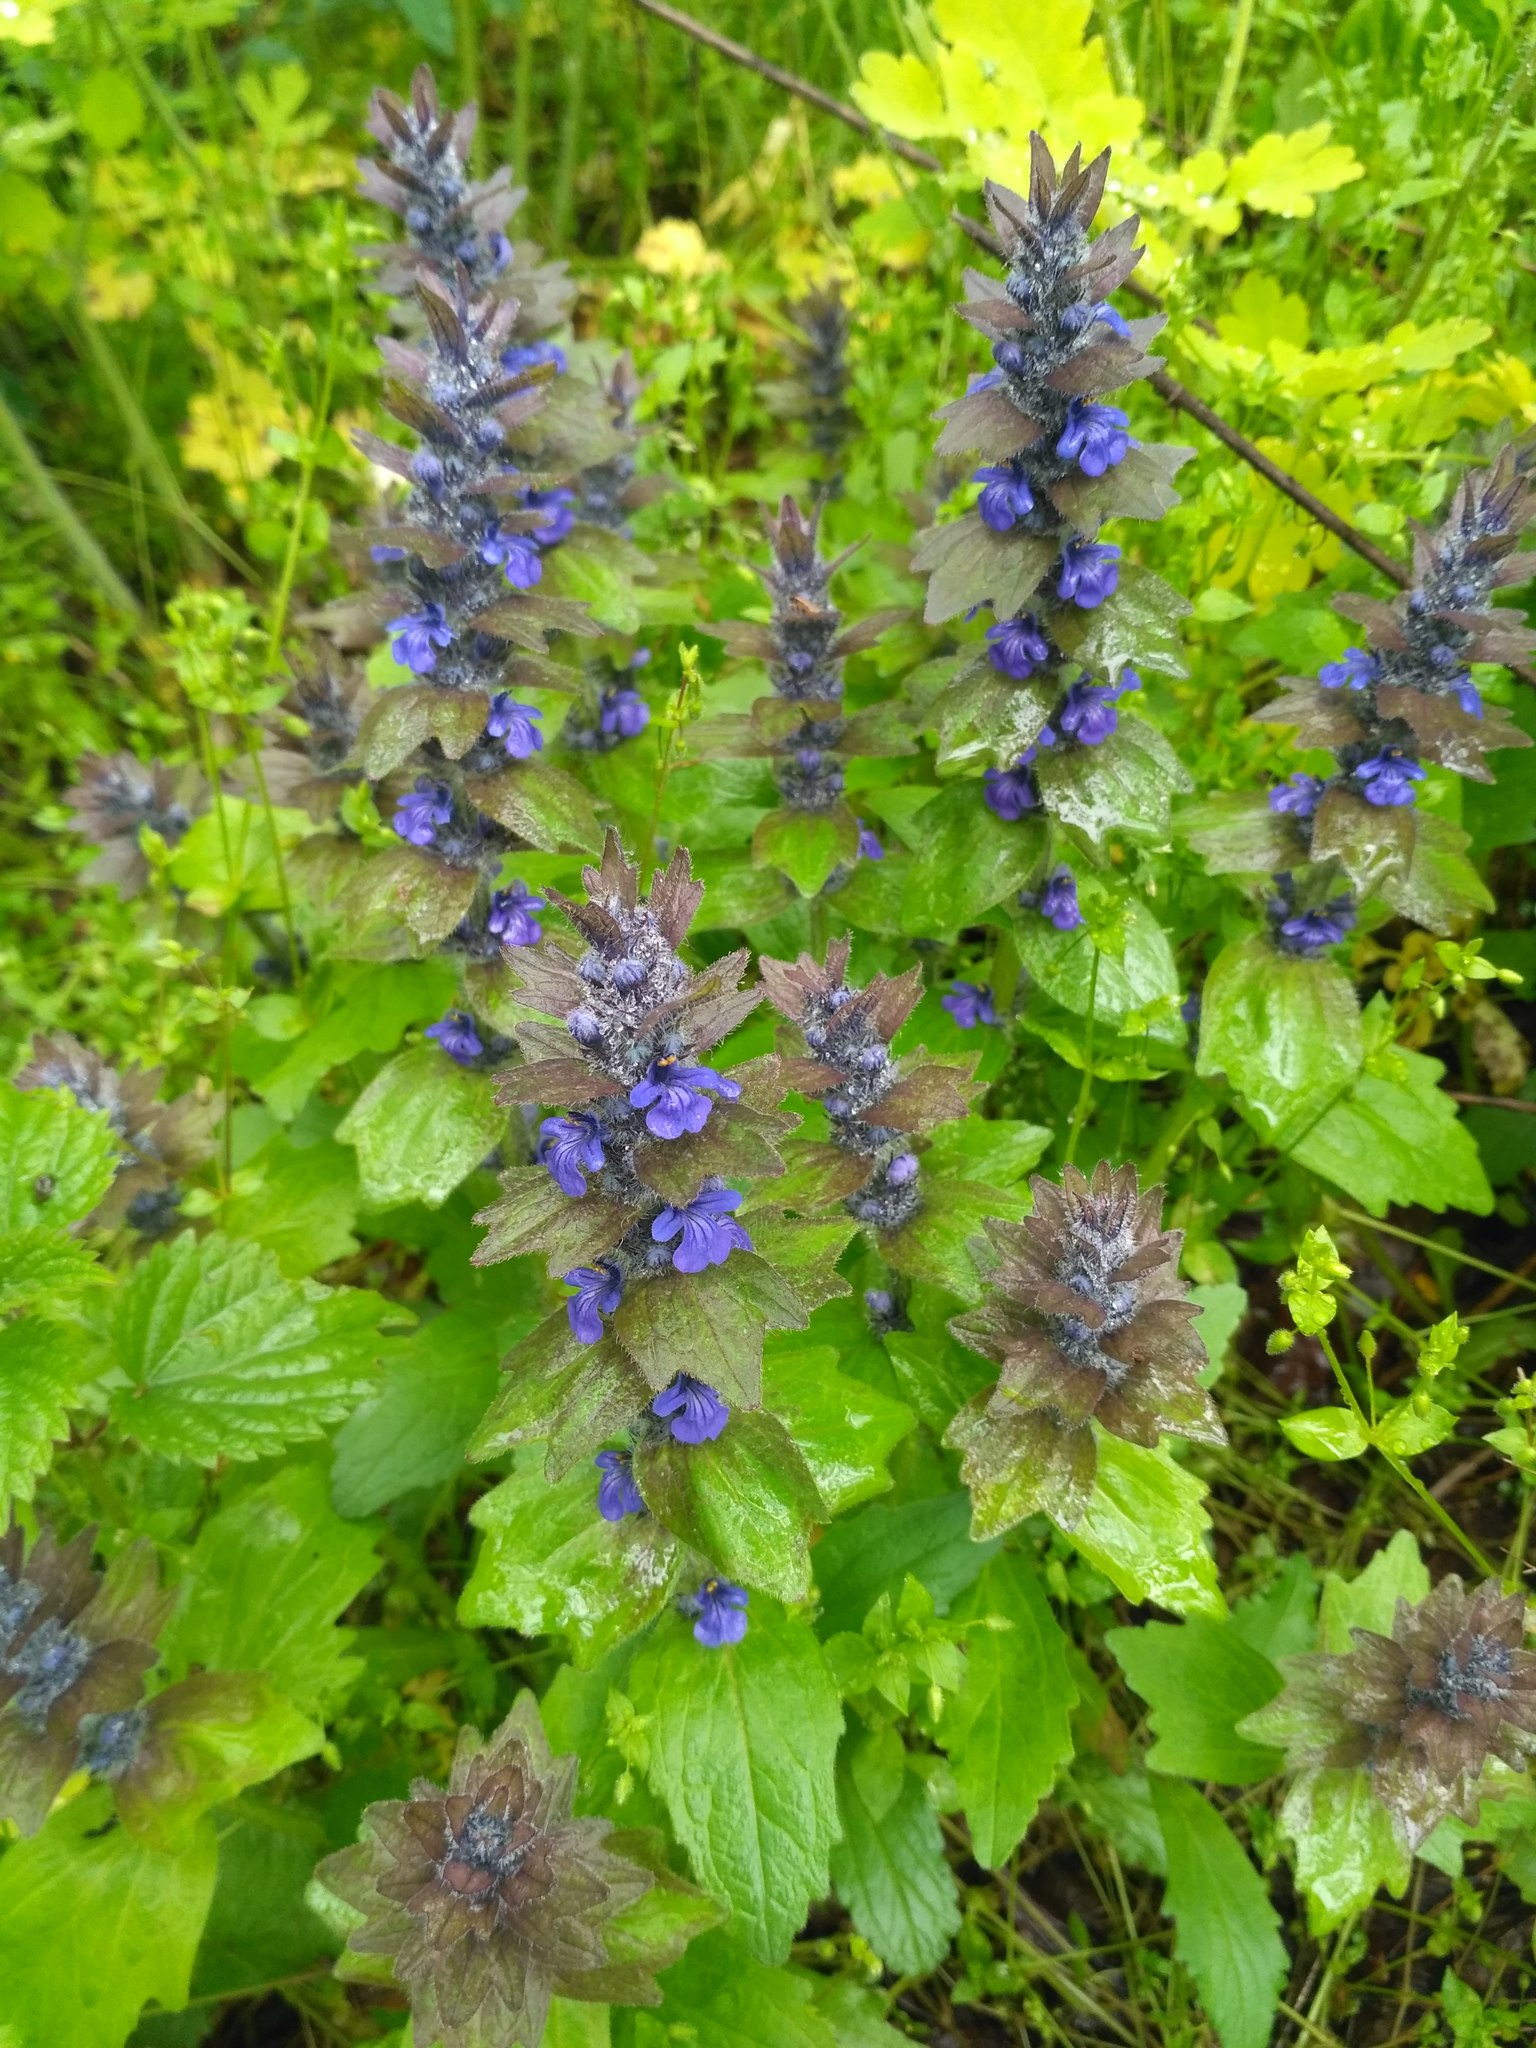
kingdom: Plantae
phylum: Tracheophyta
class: Magnoliopsida
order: Lamiales
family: Lamiaceae
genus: Ajuga
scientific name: Ajuga genevensis
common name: Blue bugle
